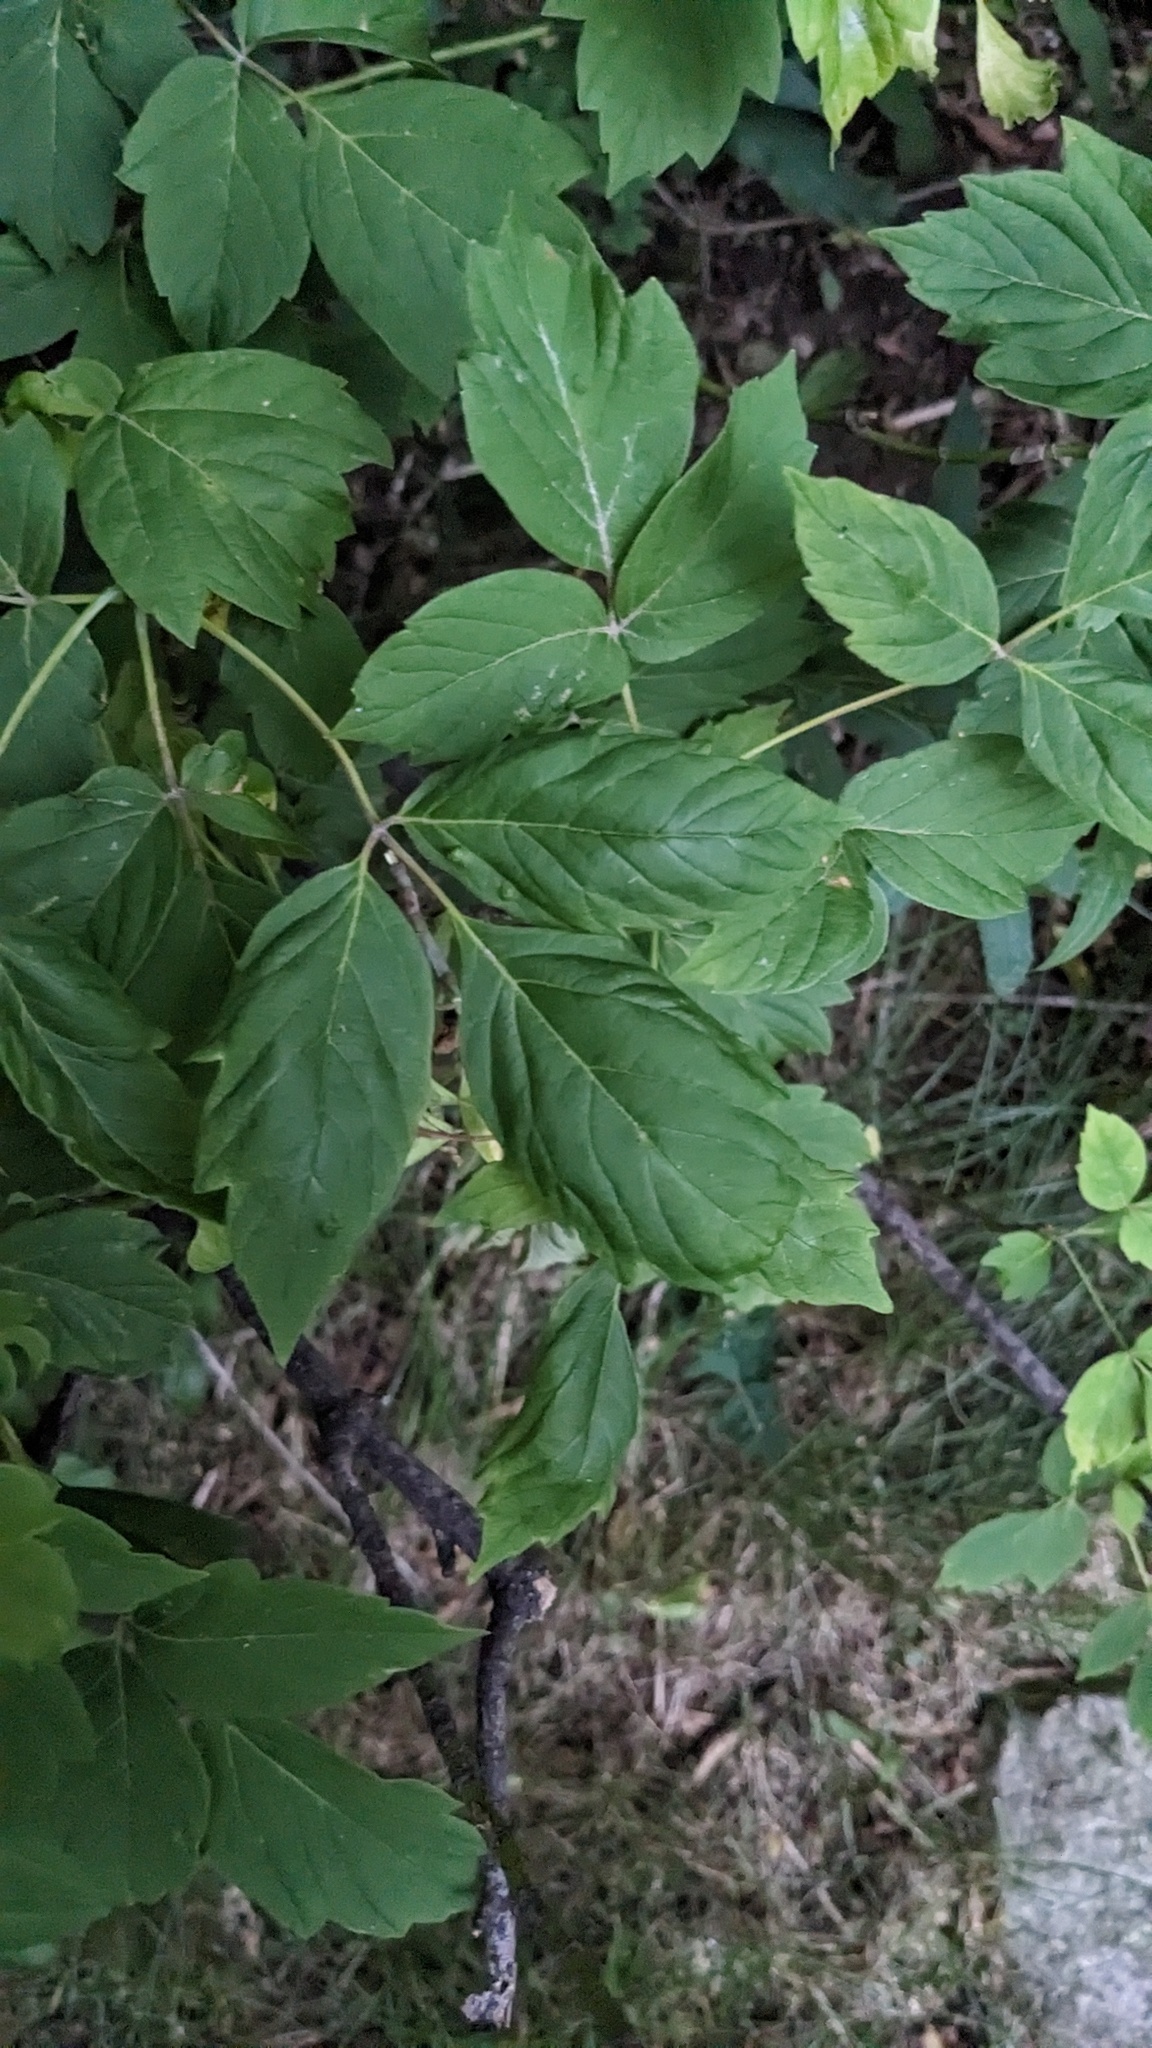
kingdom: Animalia
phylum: Arthropoda
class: Arachnida
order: Trombidiformes
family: Eriophyidae
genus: Aceria
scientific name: Aceria
